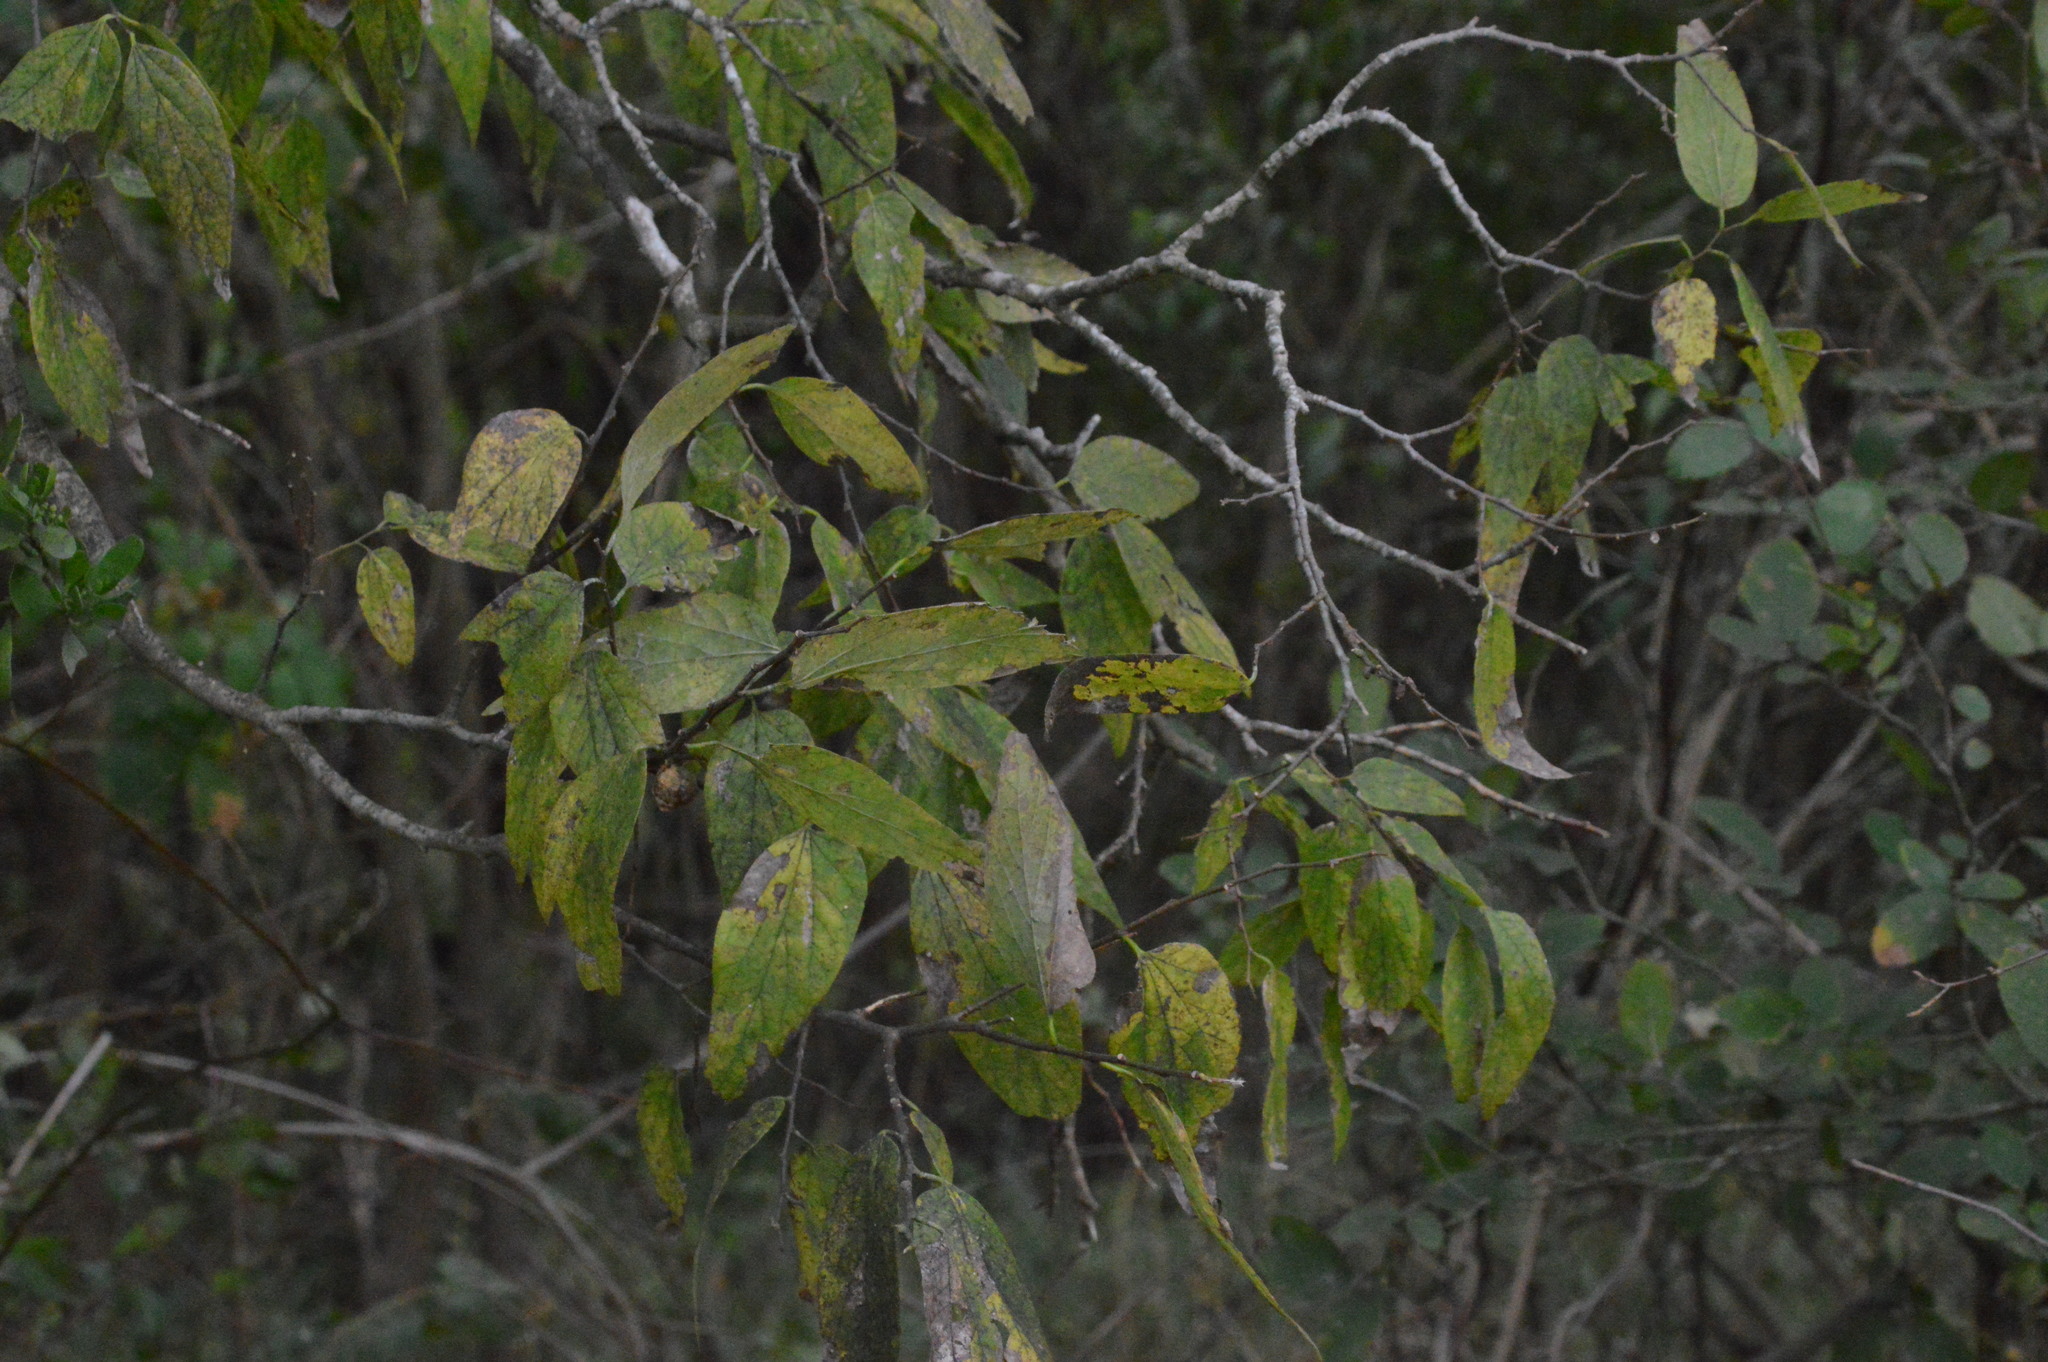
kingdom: Plantae
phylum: Tracheophyta
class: Magnoliopsida
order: Rosales
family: Cannabaceae
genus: Celtis
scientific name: Celtis laevigata
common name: Sugarberry
